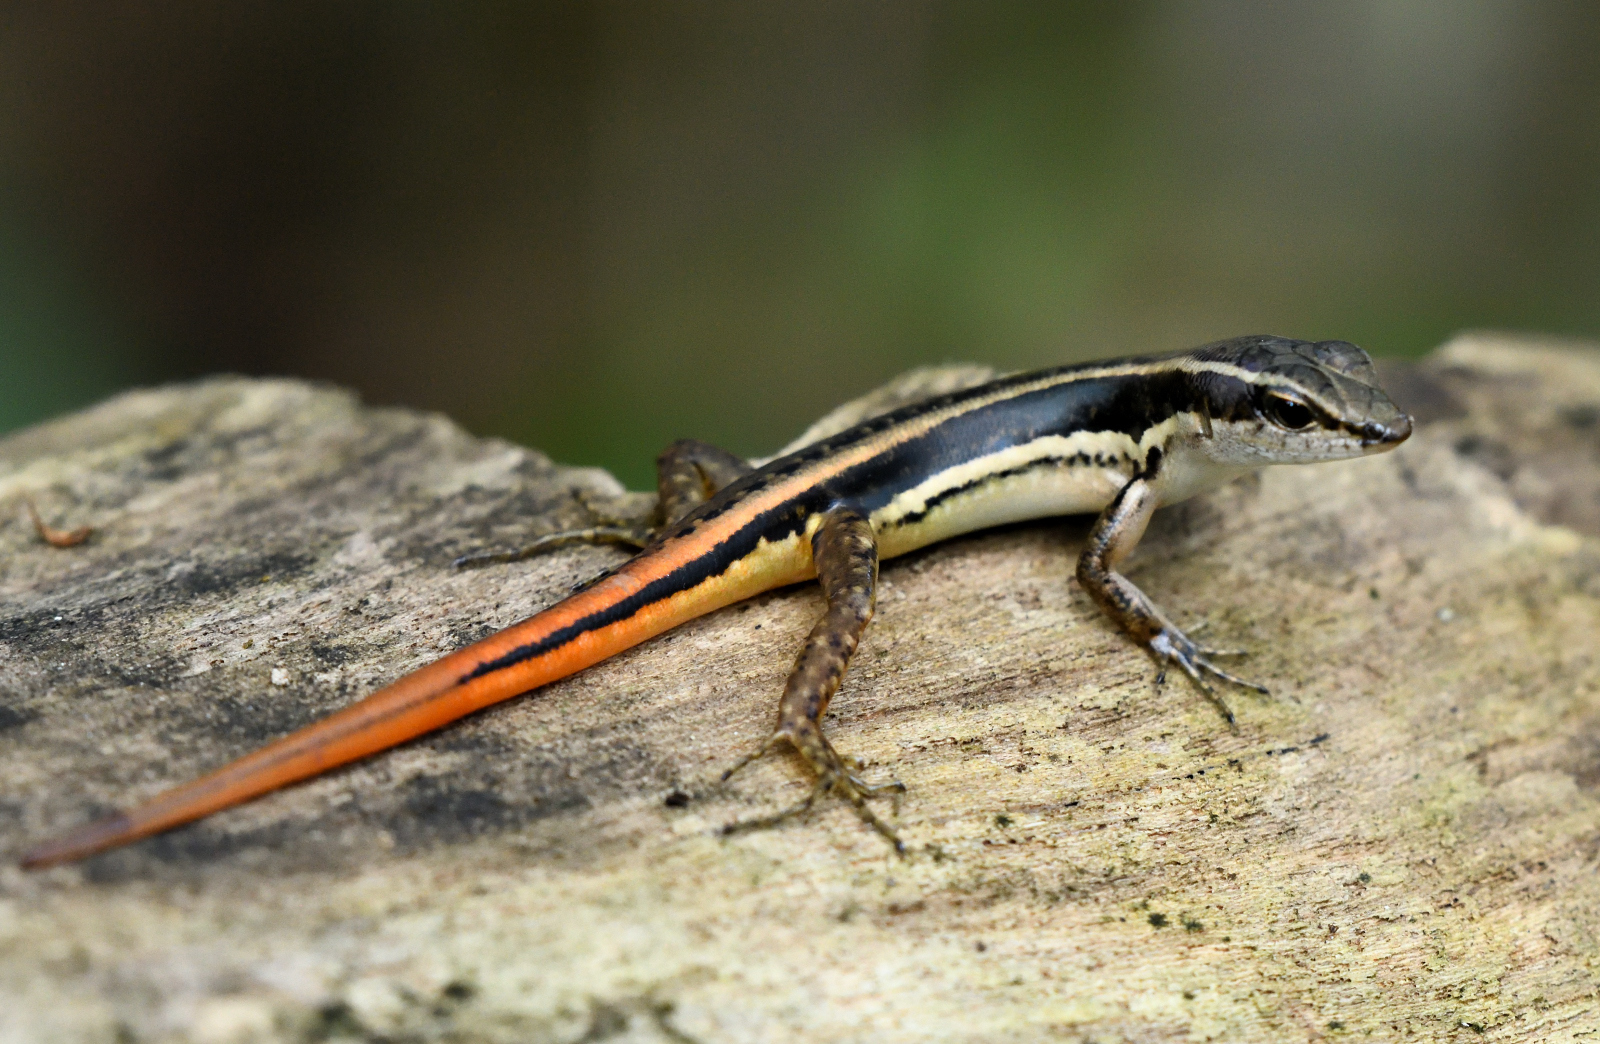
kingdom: Animalia
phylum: Chordata
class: Squamata
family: Scincidae
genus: Sphenomorphus
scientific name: Sphenomorphus dussumieri
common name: Dussumier's forest skink
